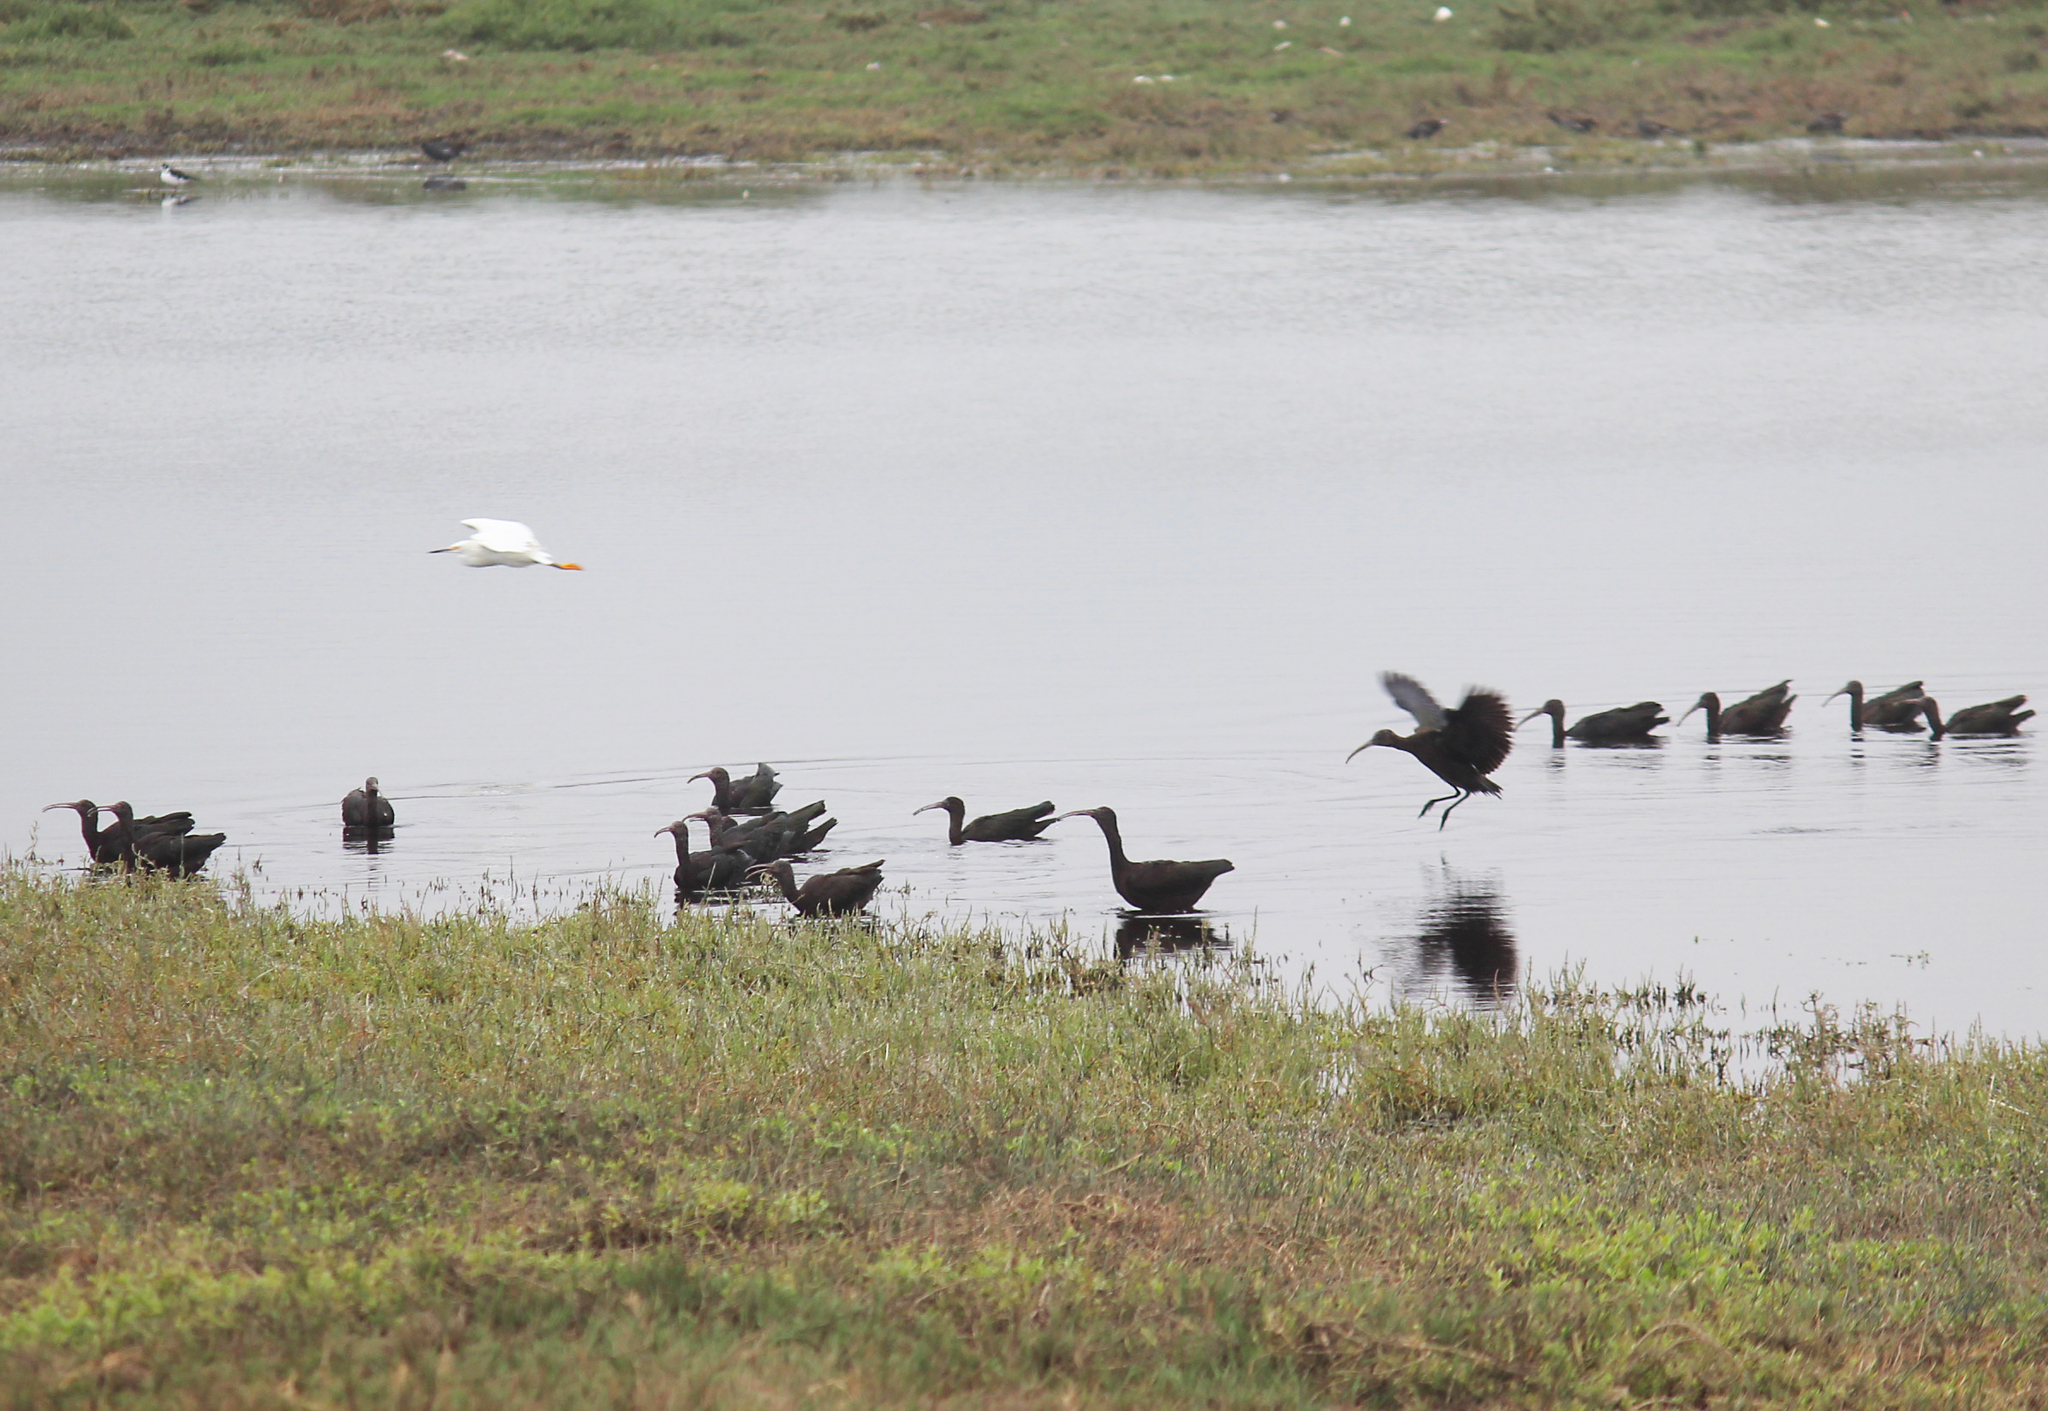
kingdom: Animalia
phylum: Chordata
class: Aves
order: Pelecaniformes
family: Threskiornithidae
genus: Plegadis
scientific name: Plegadis ridgwayi
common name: Puna ibis
